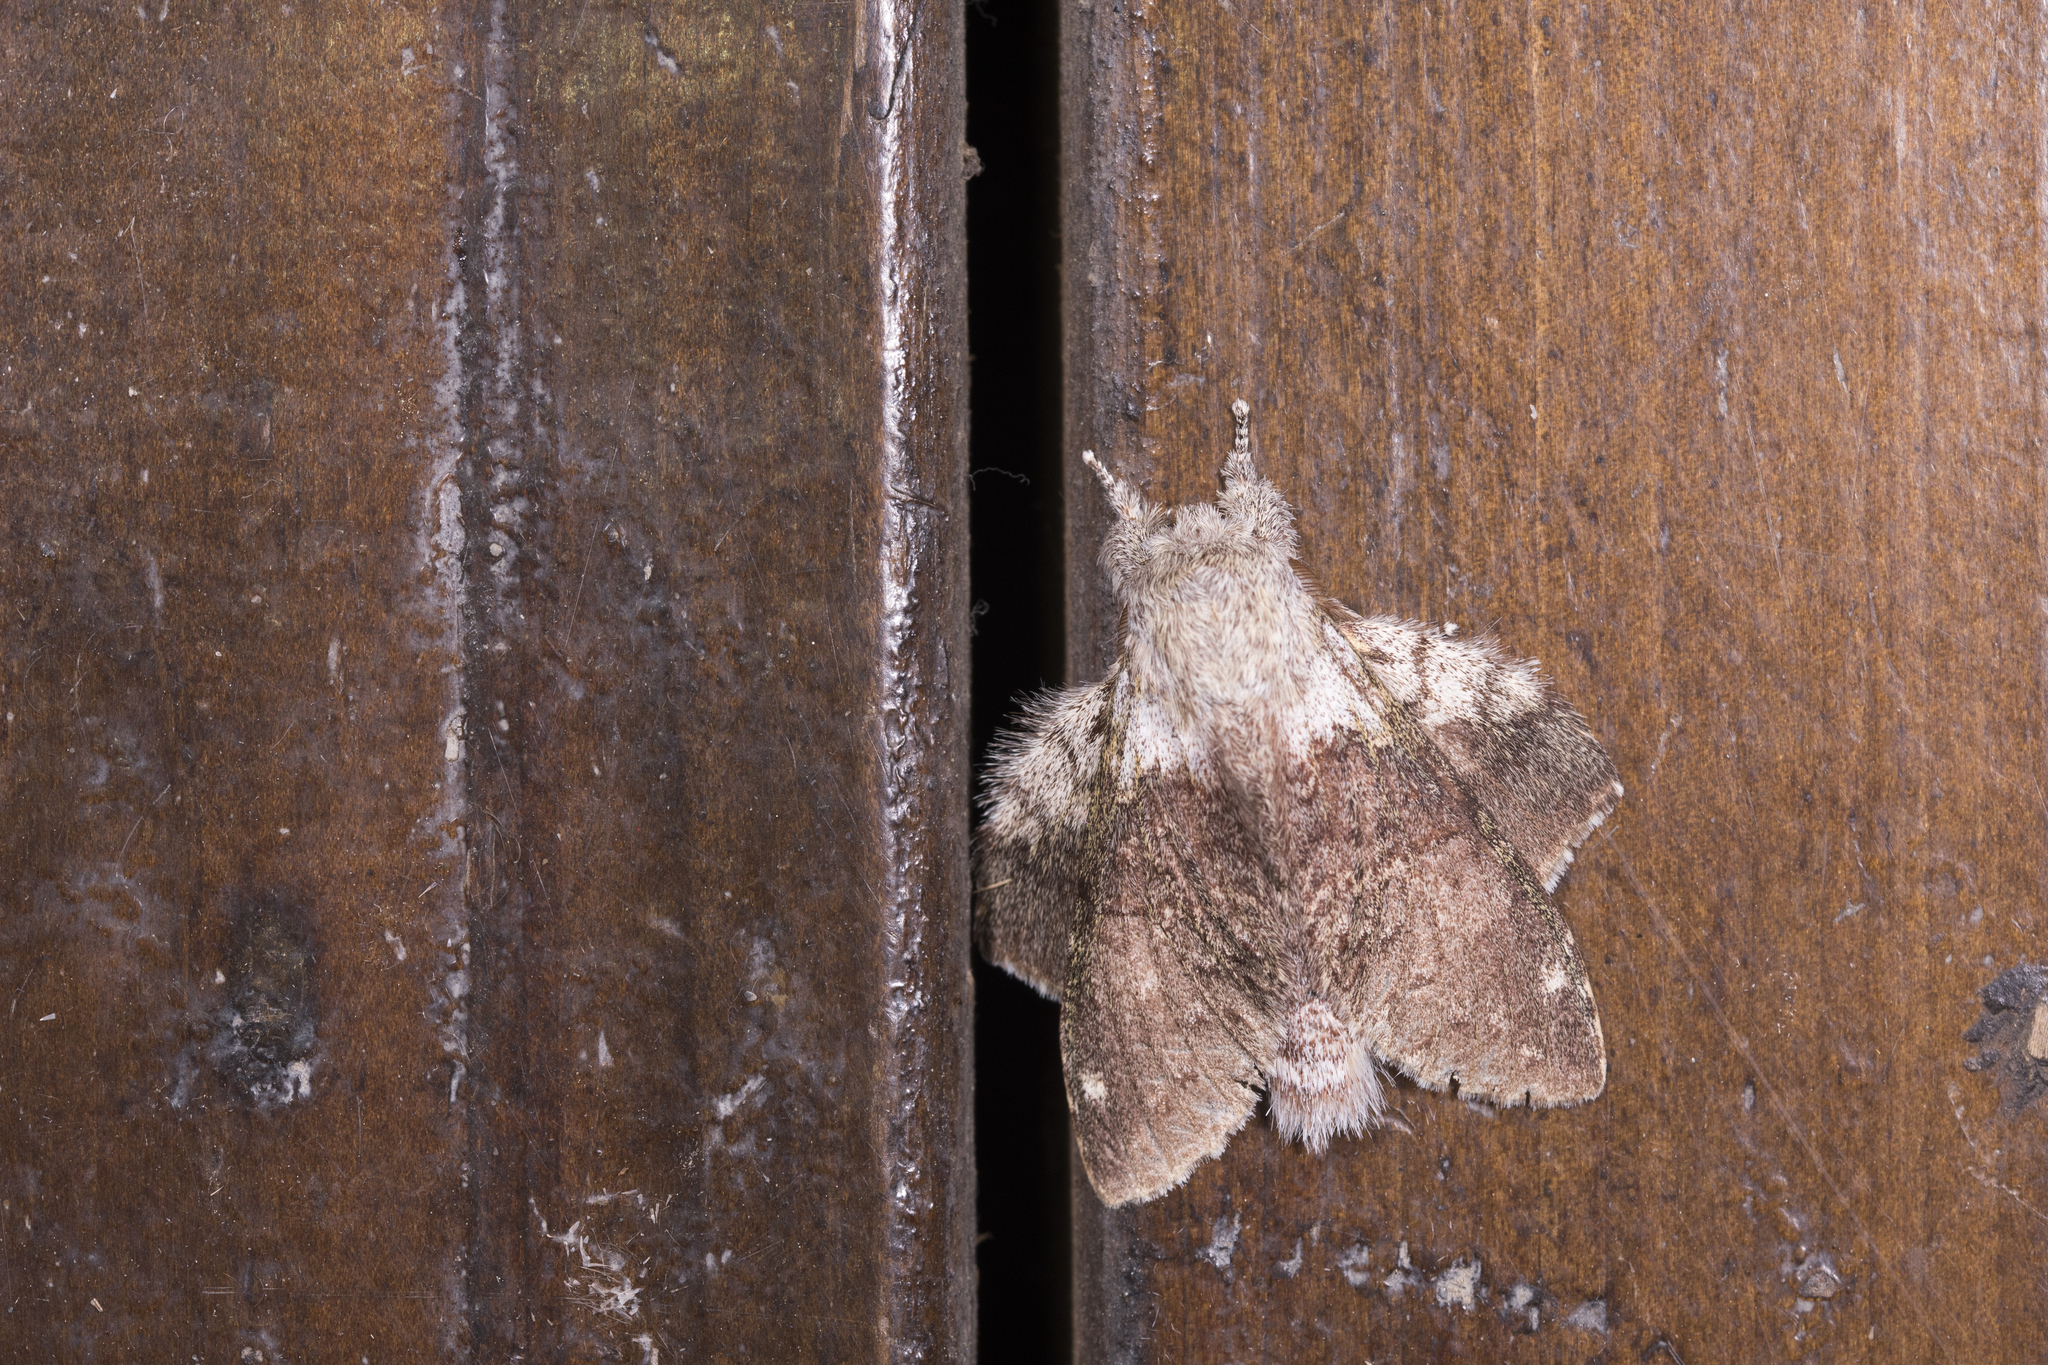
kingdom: Animalia
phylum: Arthropoda
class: Insecta
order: Lepidoptera
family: Notodontidae
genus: Stauropus
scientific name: Stauropus teikichiana
